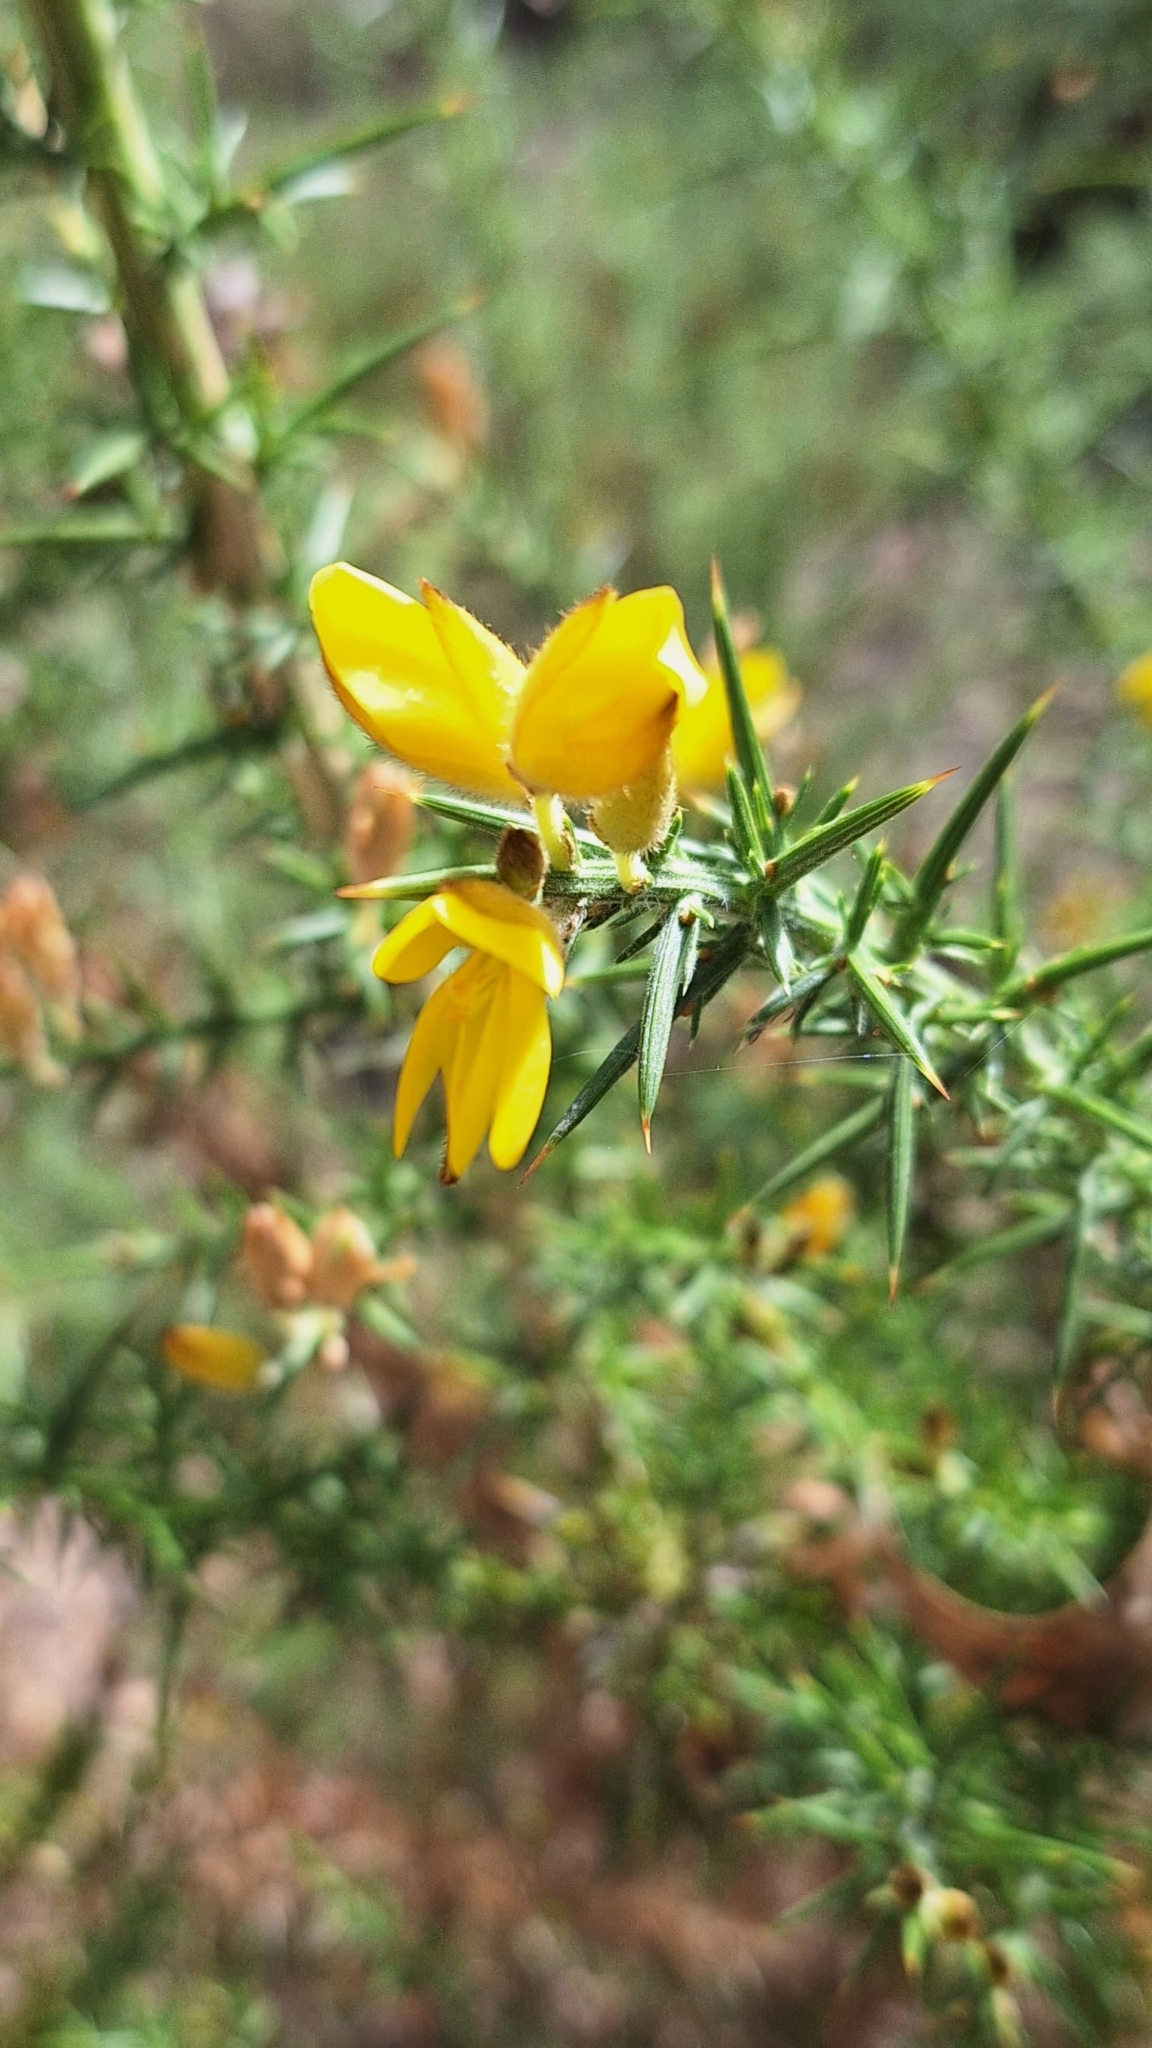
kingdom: Plantae
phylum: Tracheophyta
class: Magnoliopsida
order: Fabales
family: Fabaceae
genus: Ulex
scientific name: Ulex europaeus
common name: Common gorse
